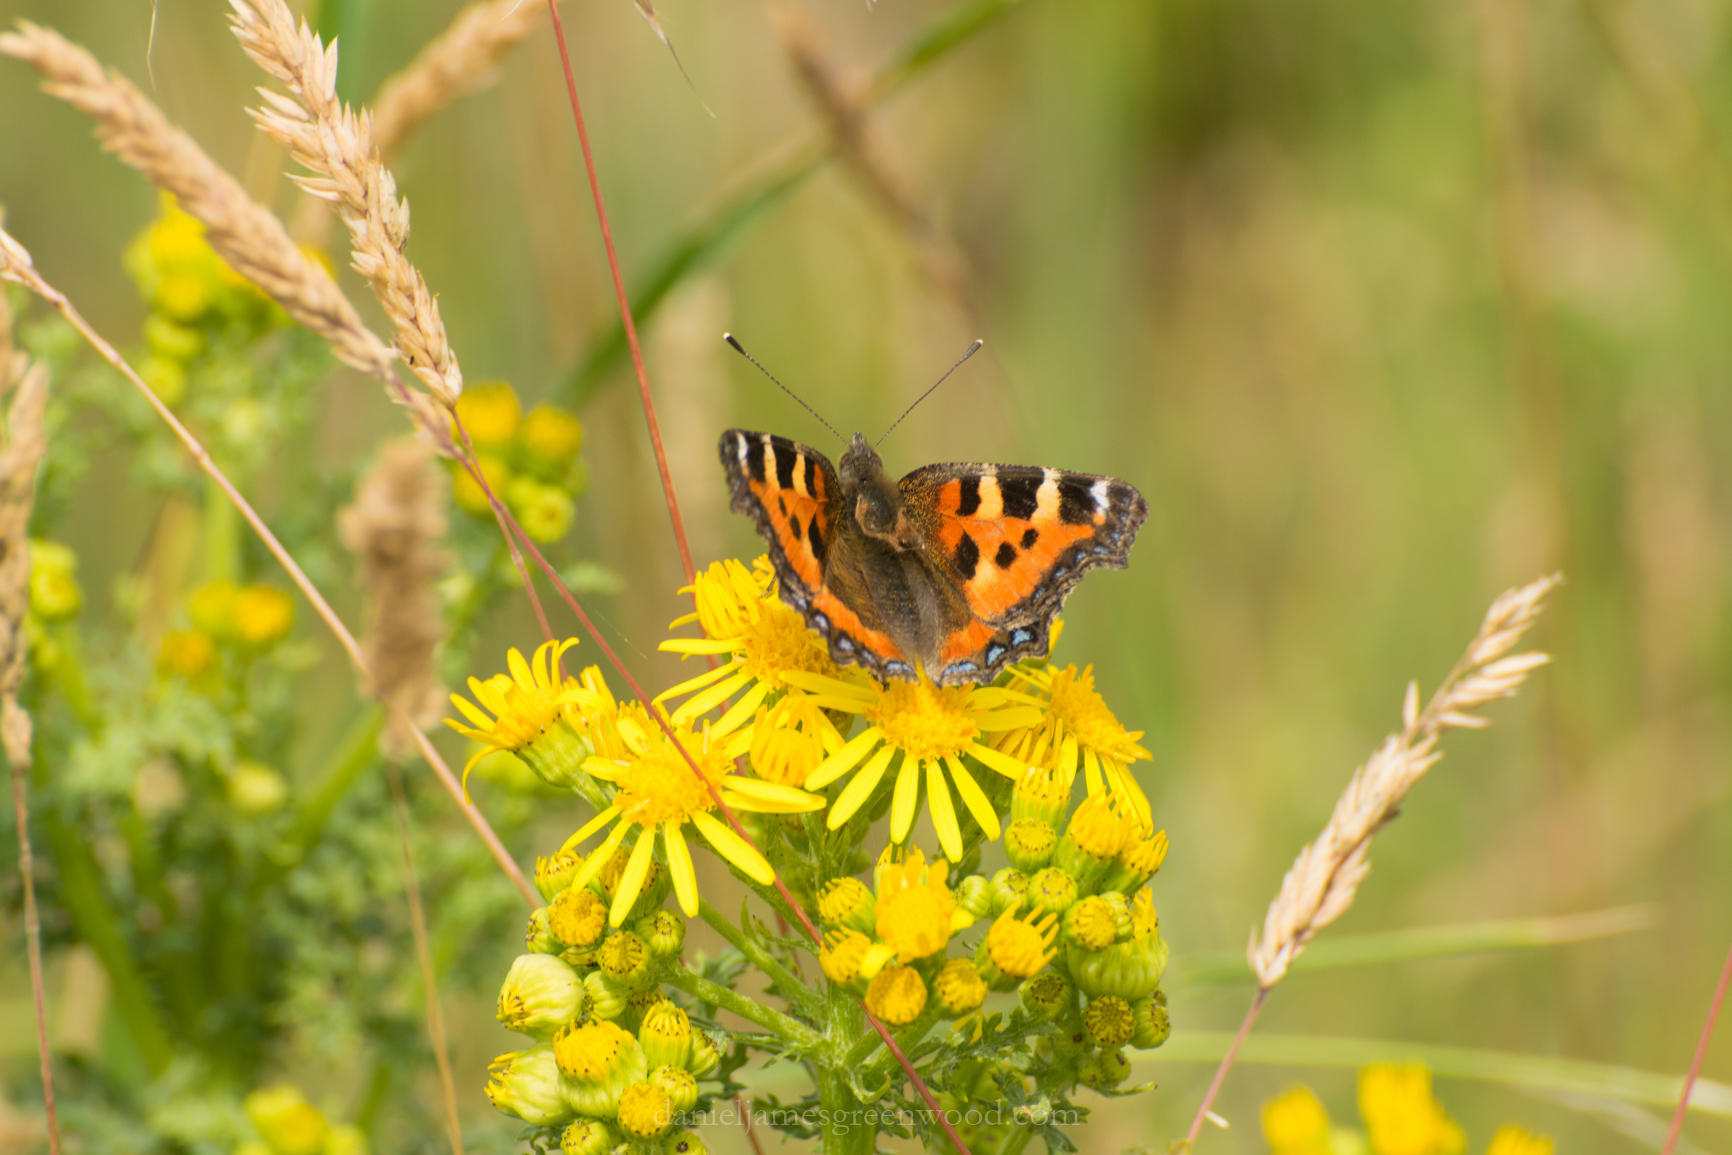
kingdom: Animalia
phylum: Arthropoda
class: Insecta
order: Lepidoptera
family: Nymphalidae
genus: Aglais
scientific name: Aglais urticae
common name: Small tortoiseshell
